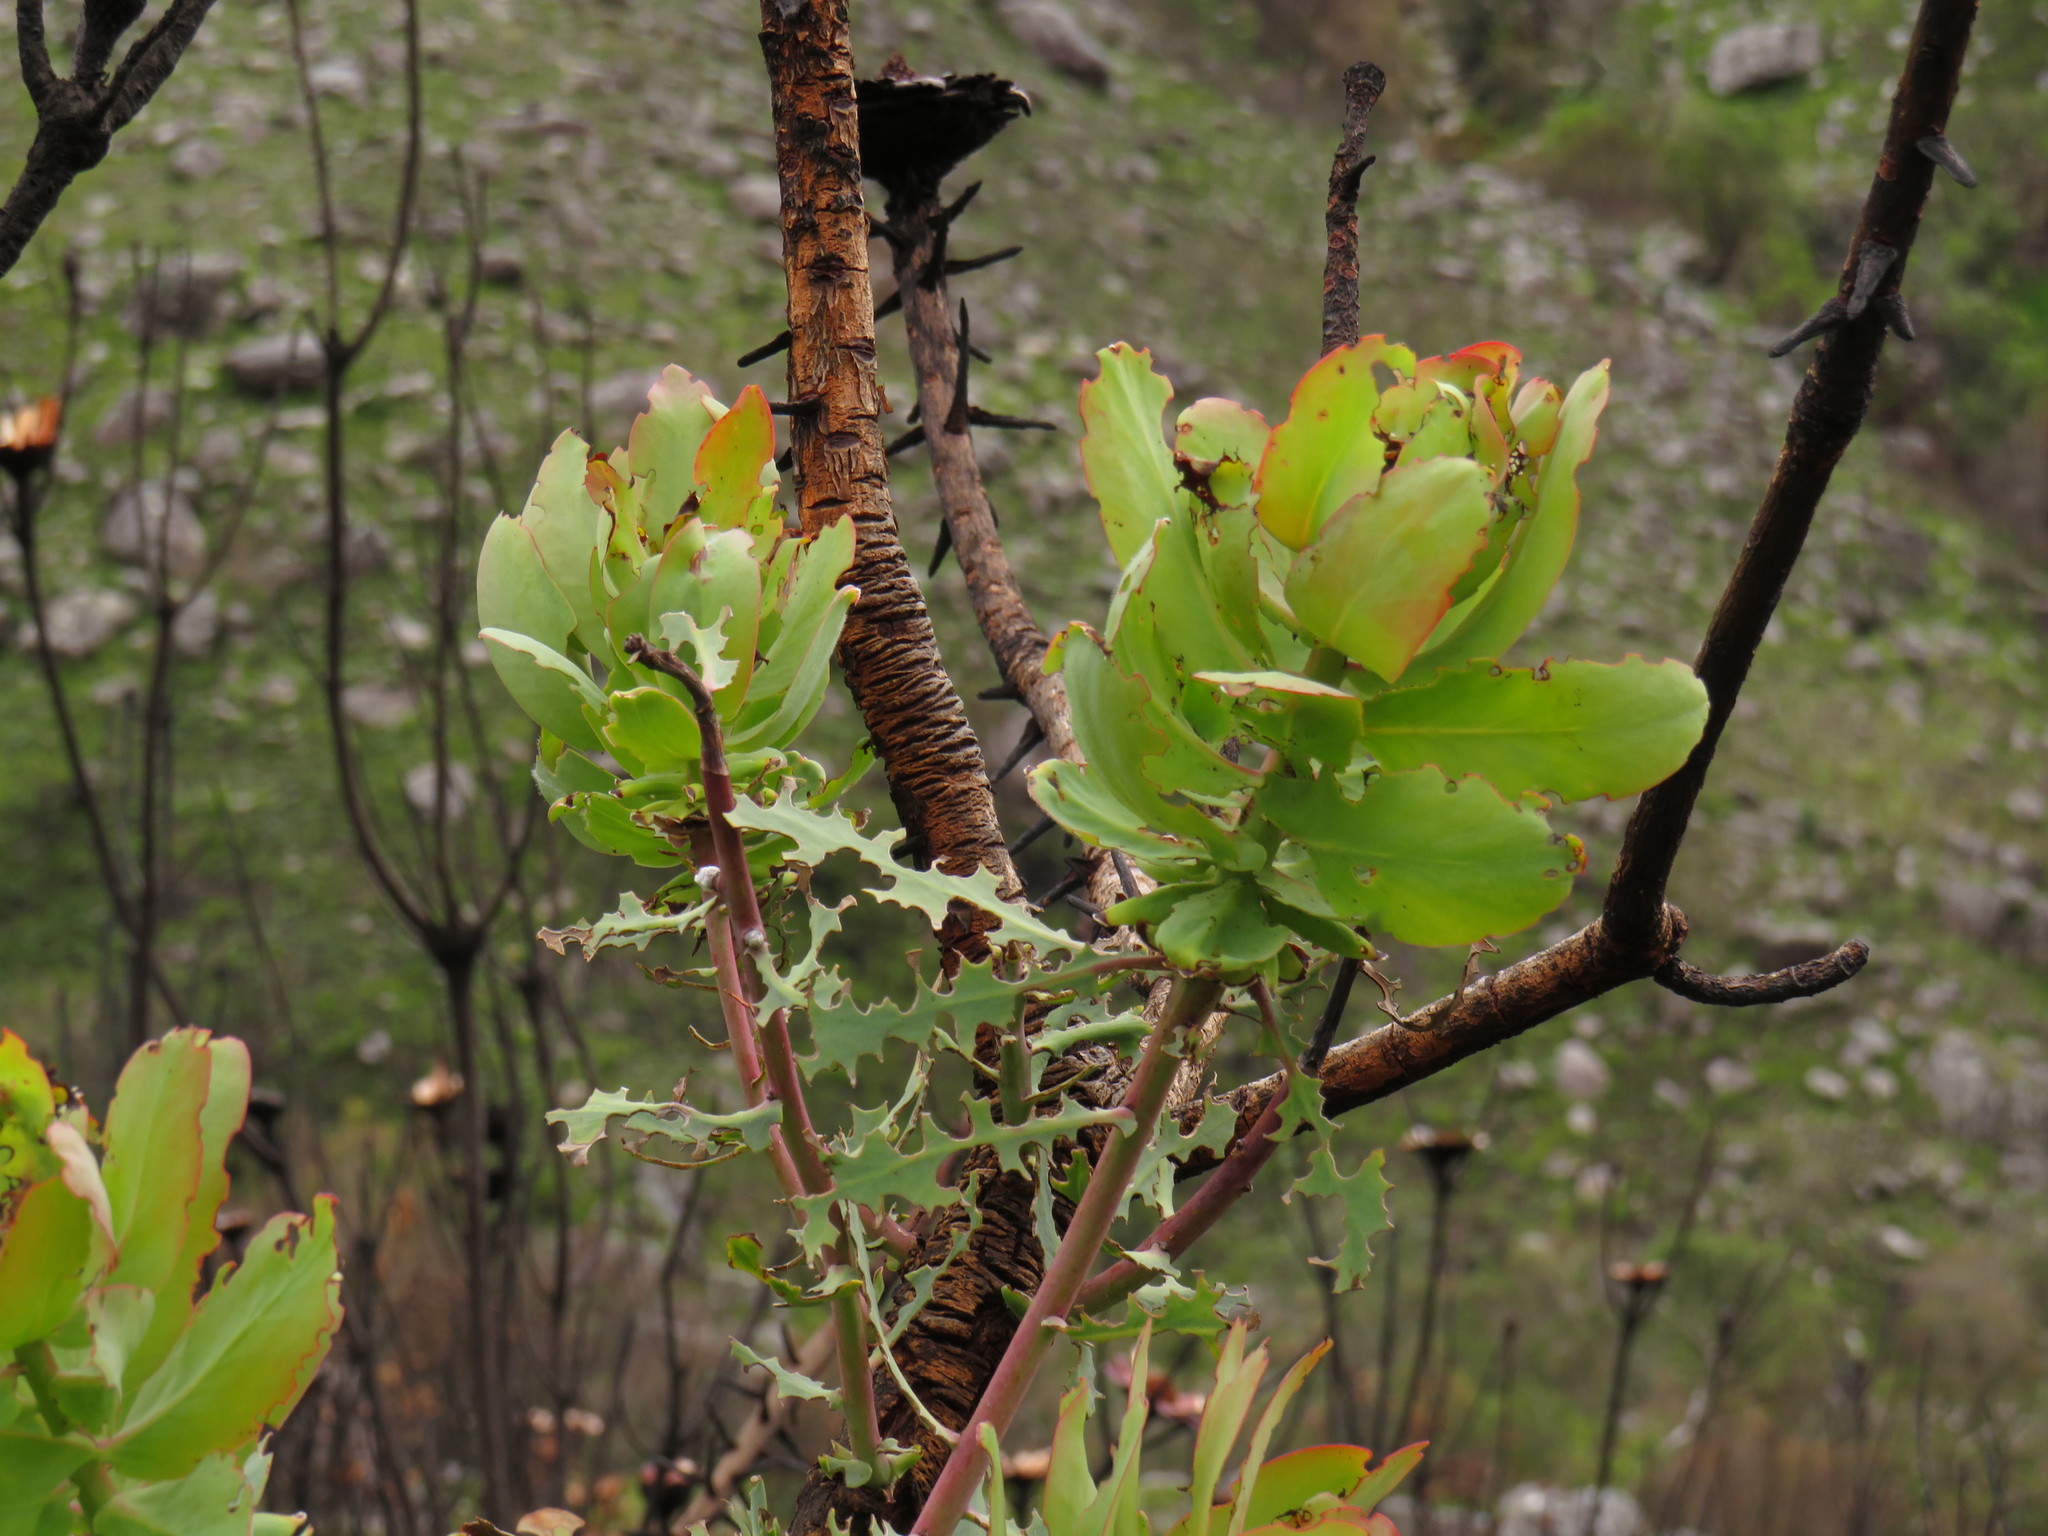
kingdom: Plantae
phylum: Tracheophyta
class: Magnoliopsida
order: Proteales
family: Proteaceae
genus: Protea
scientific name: Protea nitida
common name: Tree protea
